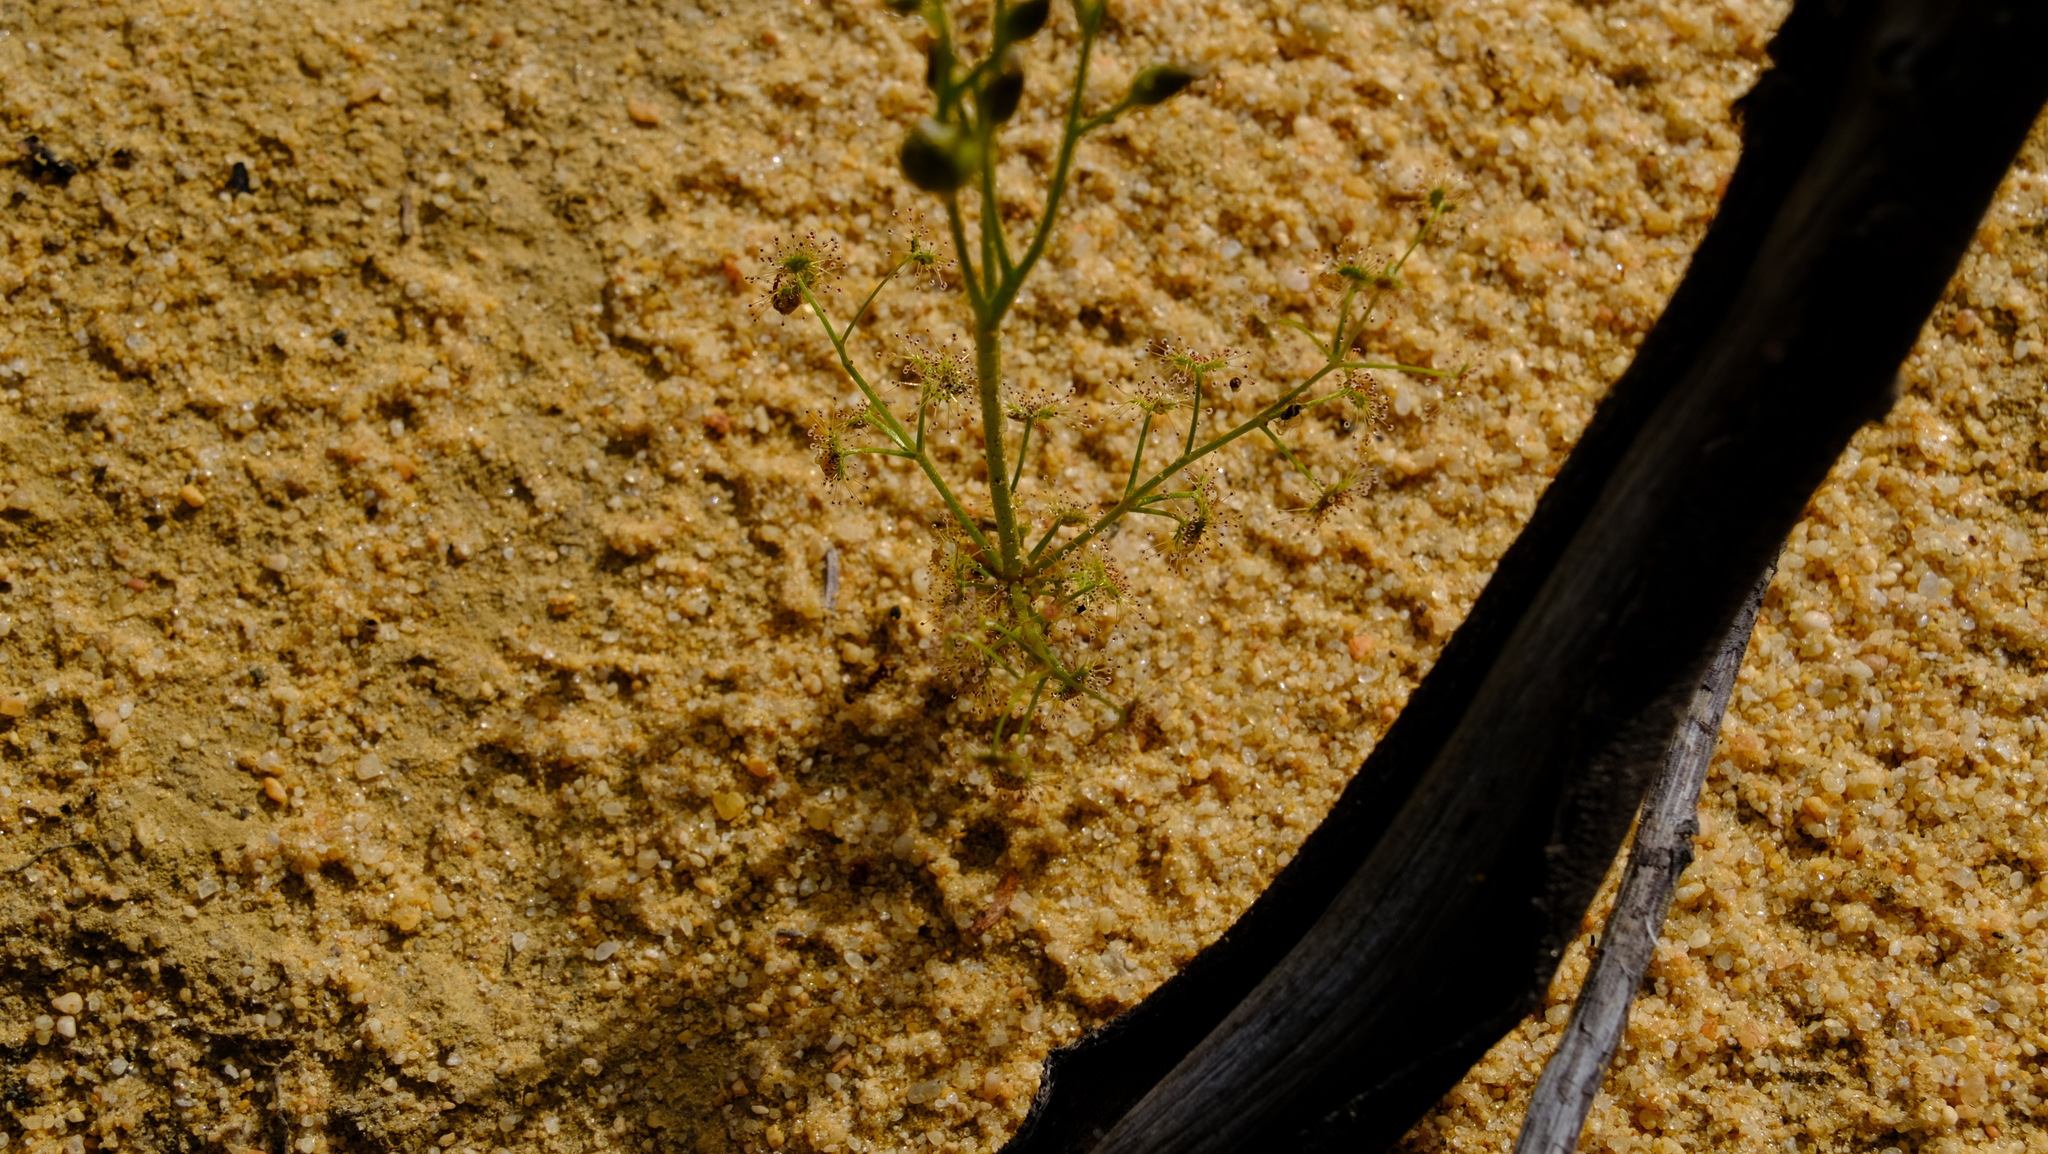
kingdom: Plantae
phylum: Tracheophyta
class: Magnoliopsida
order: Caryophyllales
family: Droseraceae
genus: Drosera
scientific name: Drosera stolonifera
